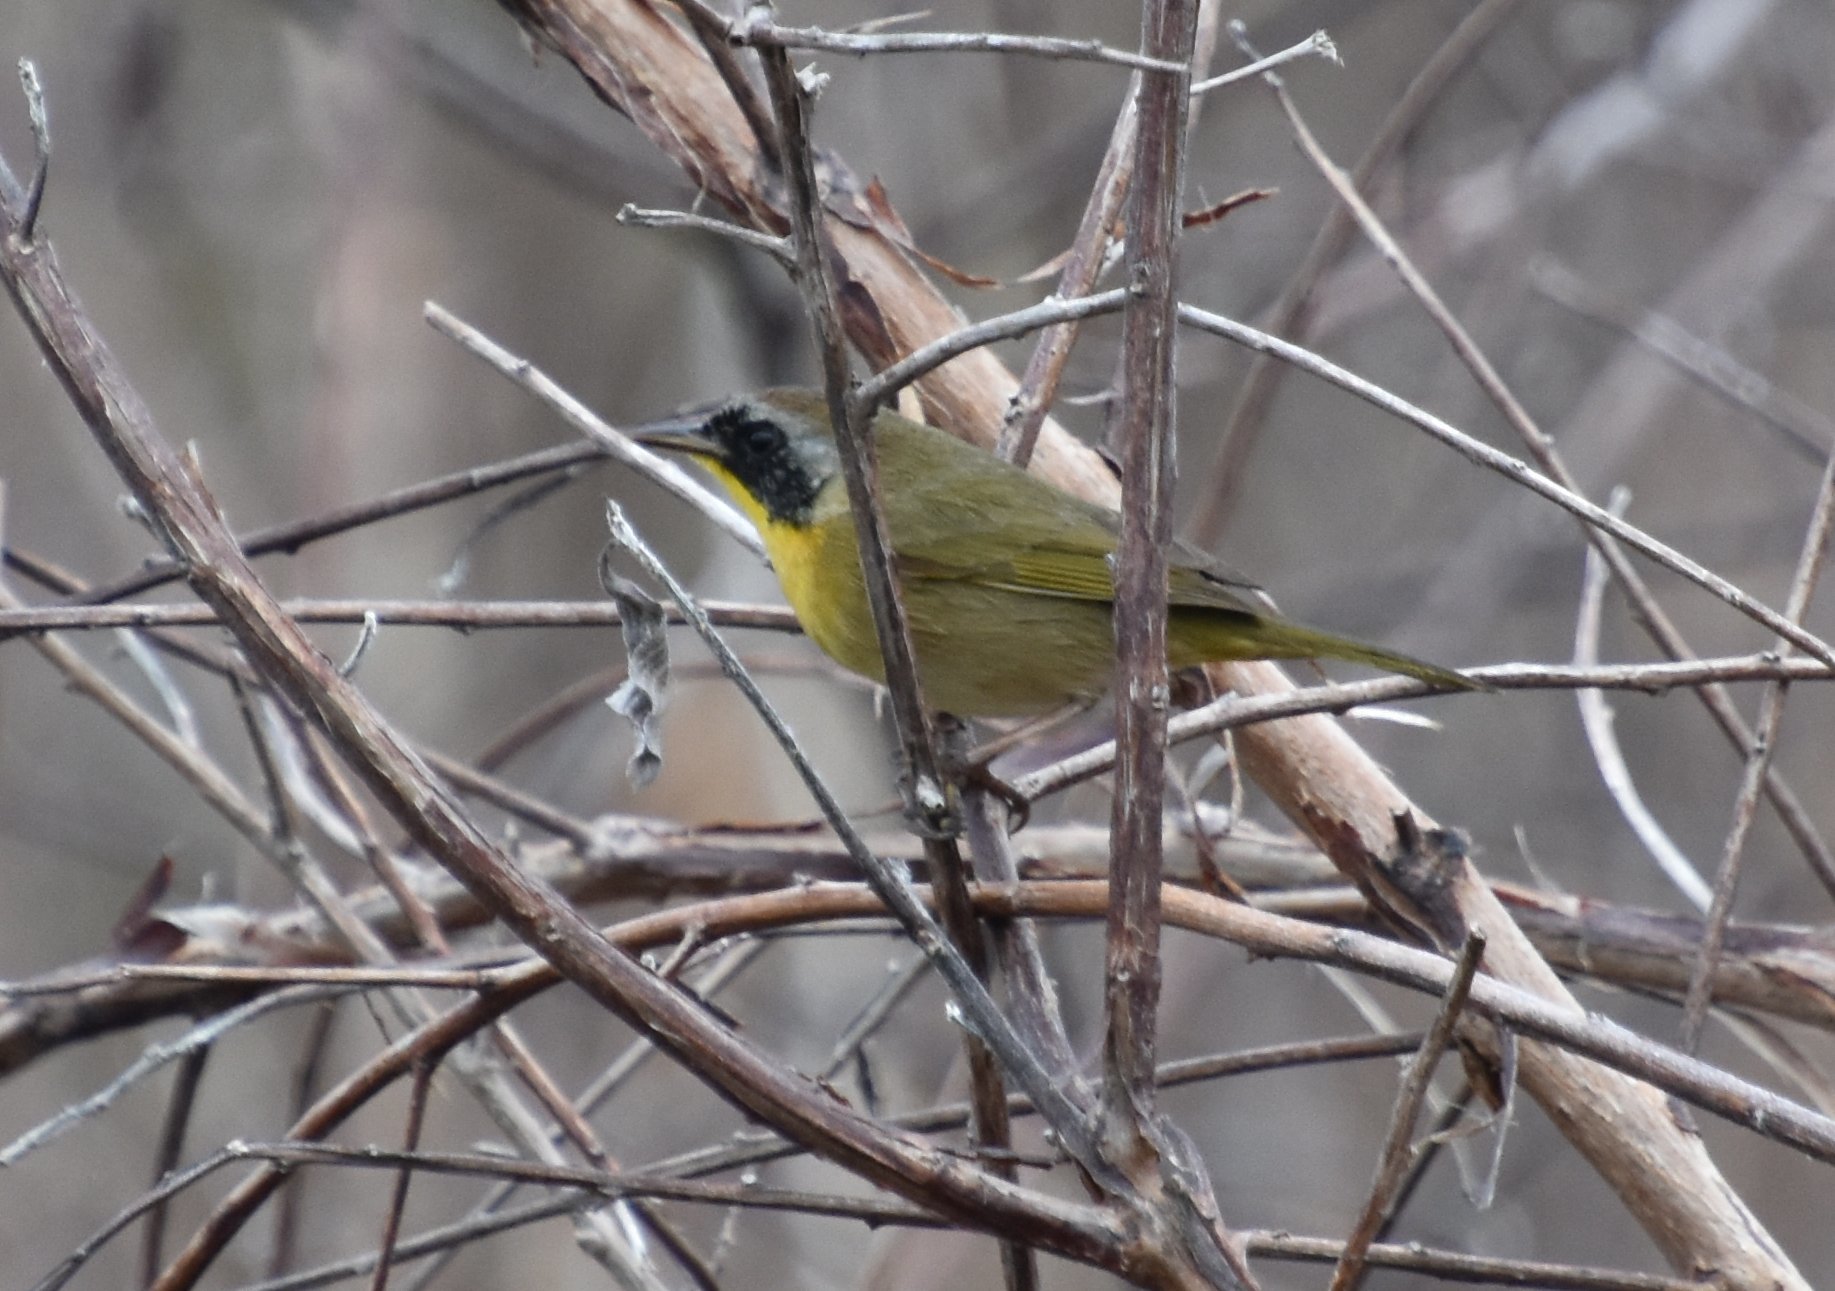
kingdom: Animalia
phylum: Chordata
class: Aves
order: Passeriformes
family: Parulidae
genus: Geothlypis
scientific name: Geothlypis trichas
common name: Common yellowthroat
